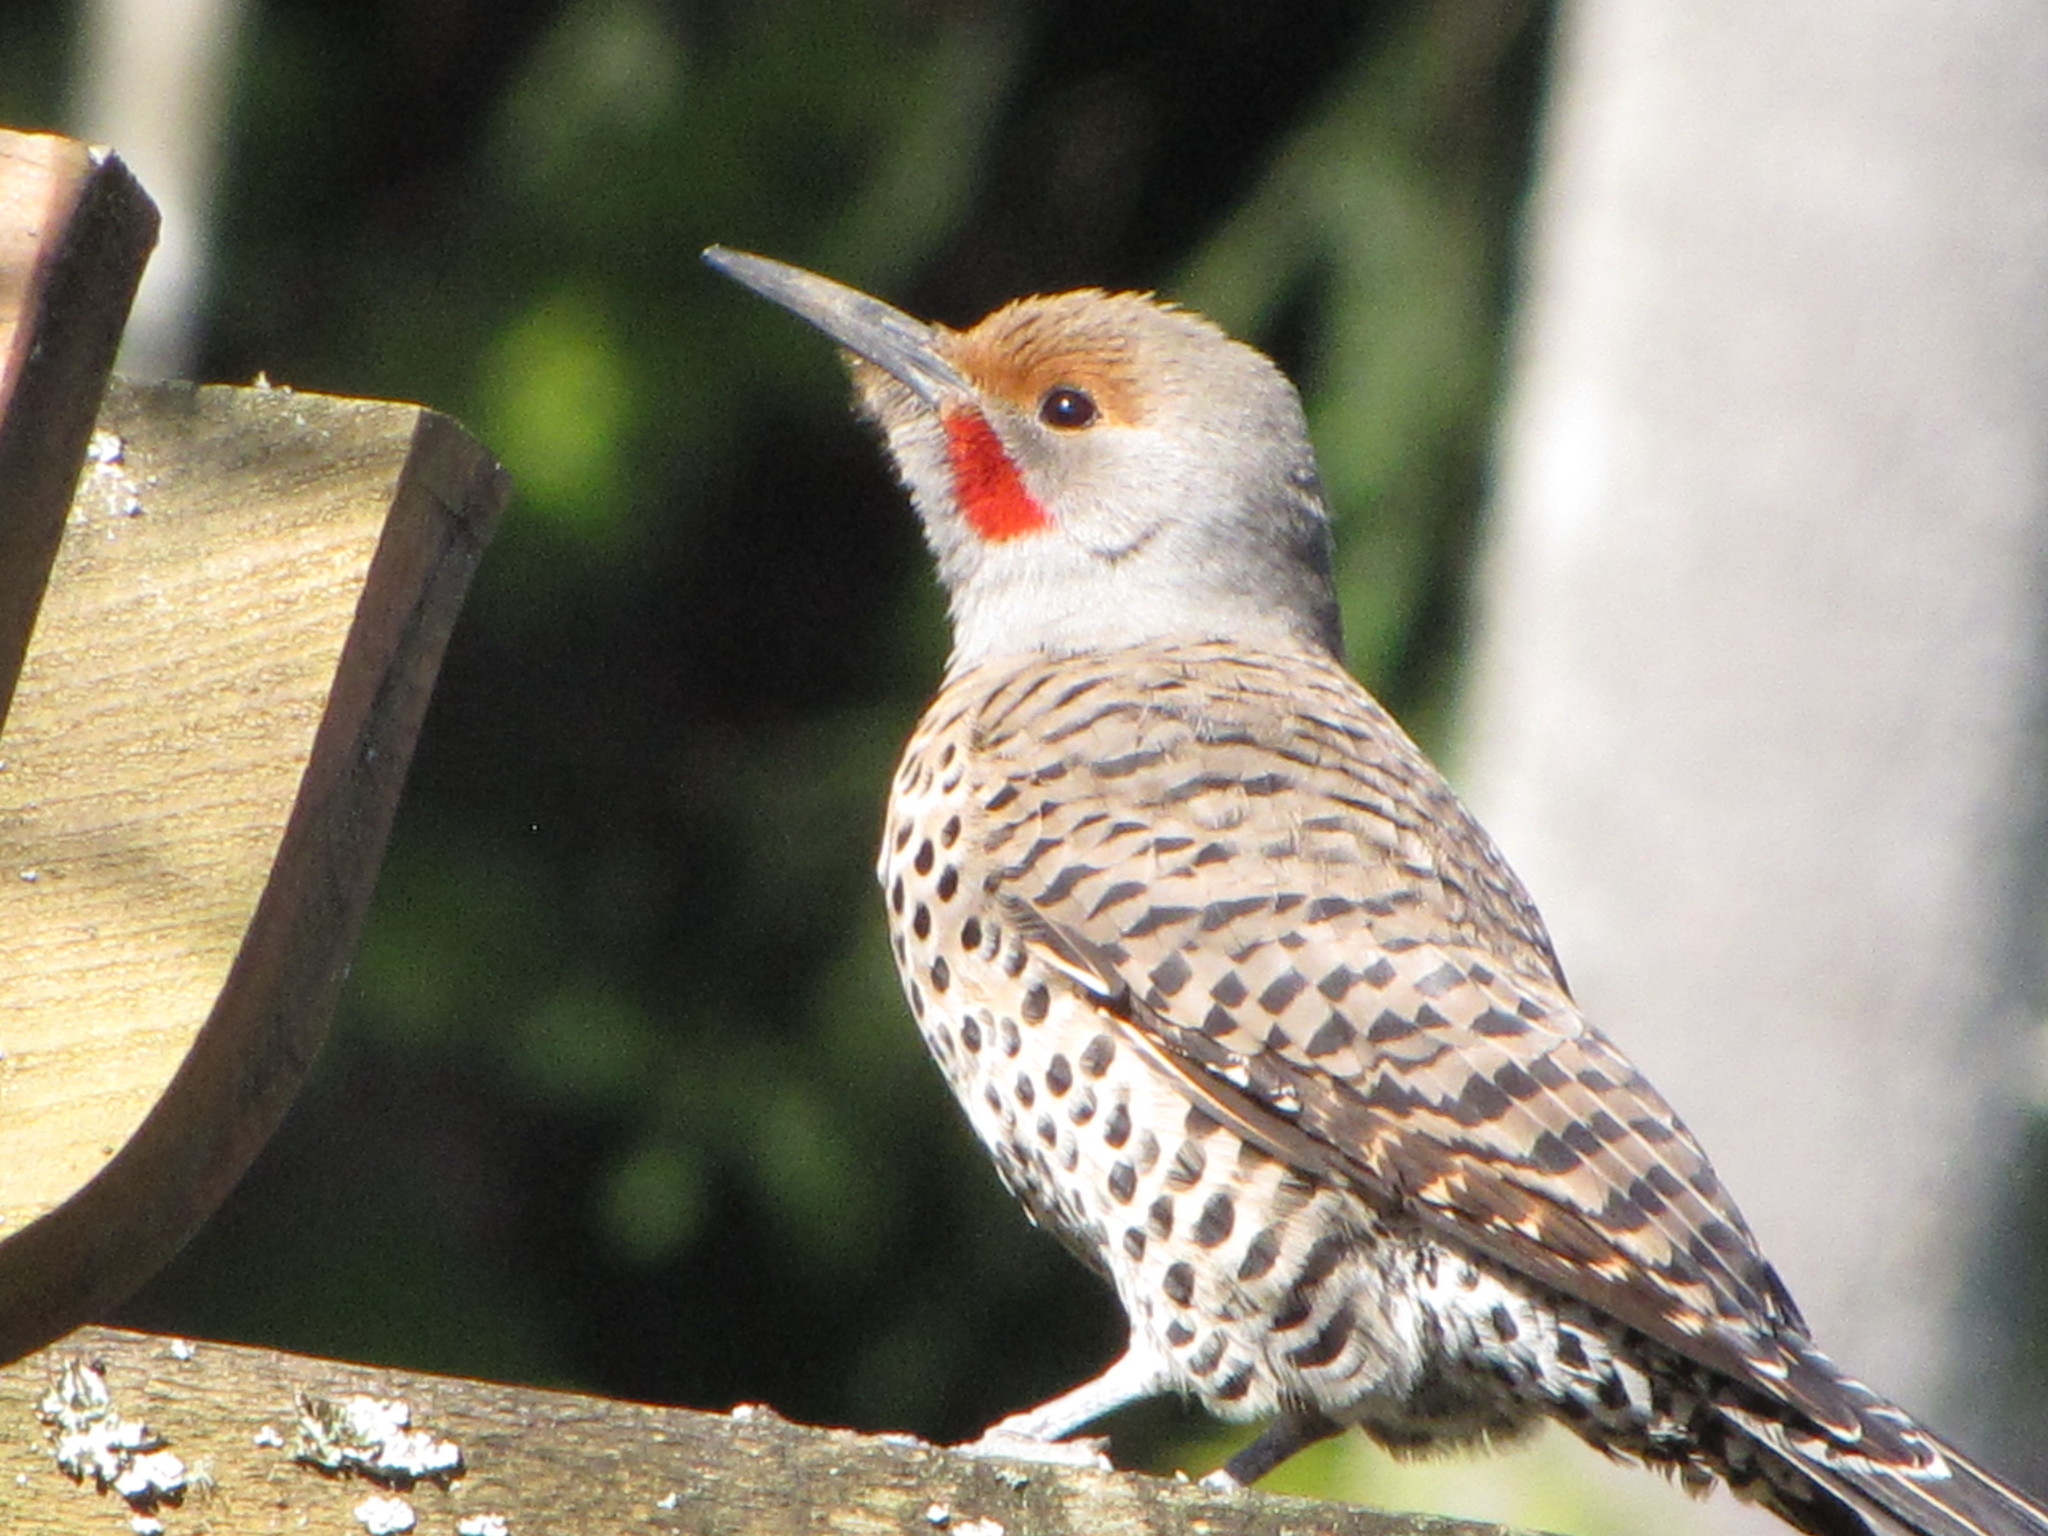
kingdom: Animalia
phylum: Chordata
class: Aves
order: Piciformes
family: Picidae
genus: Colaptes
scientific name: Colaptes auratus
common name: Northern flicker
